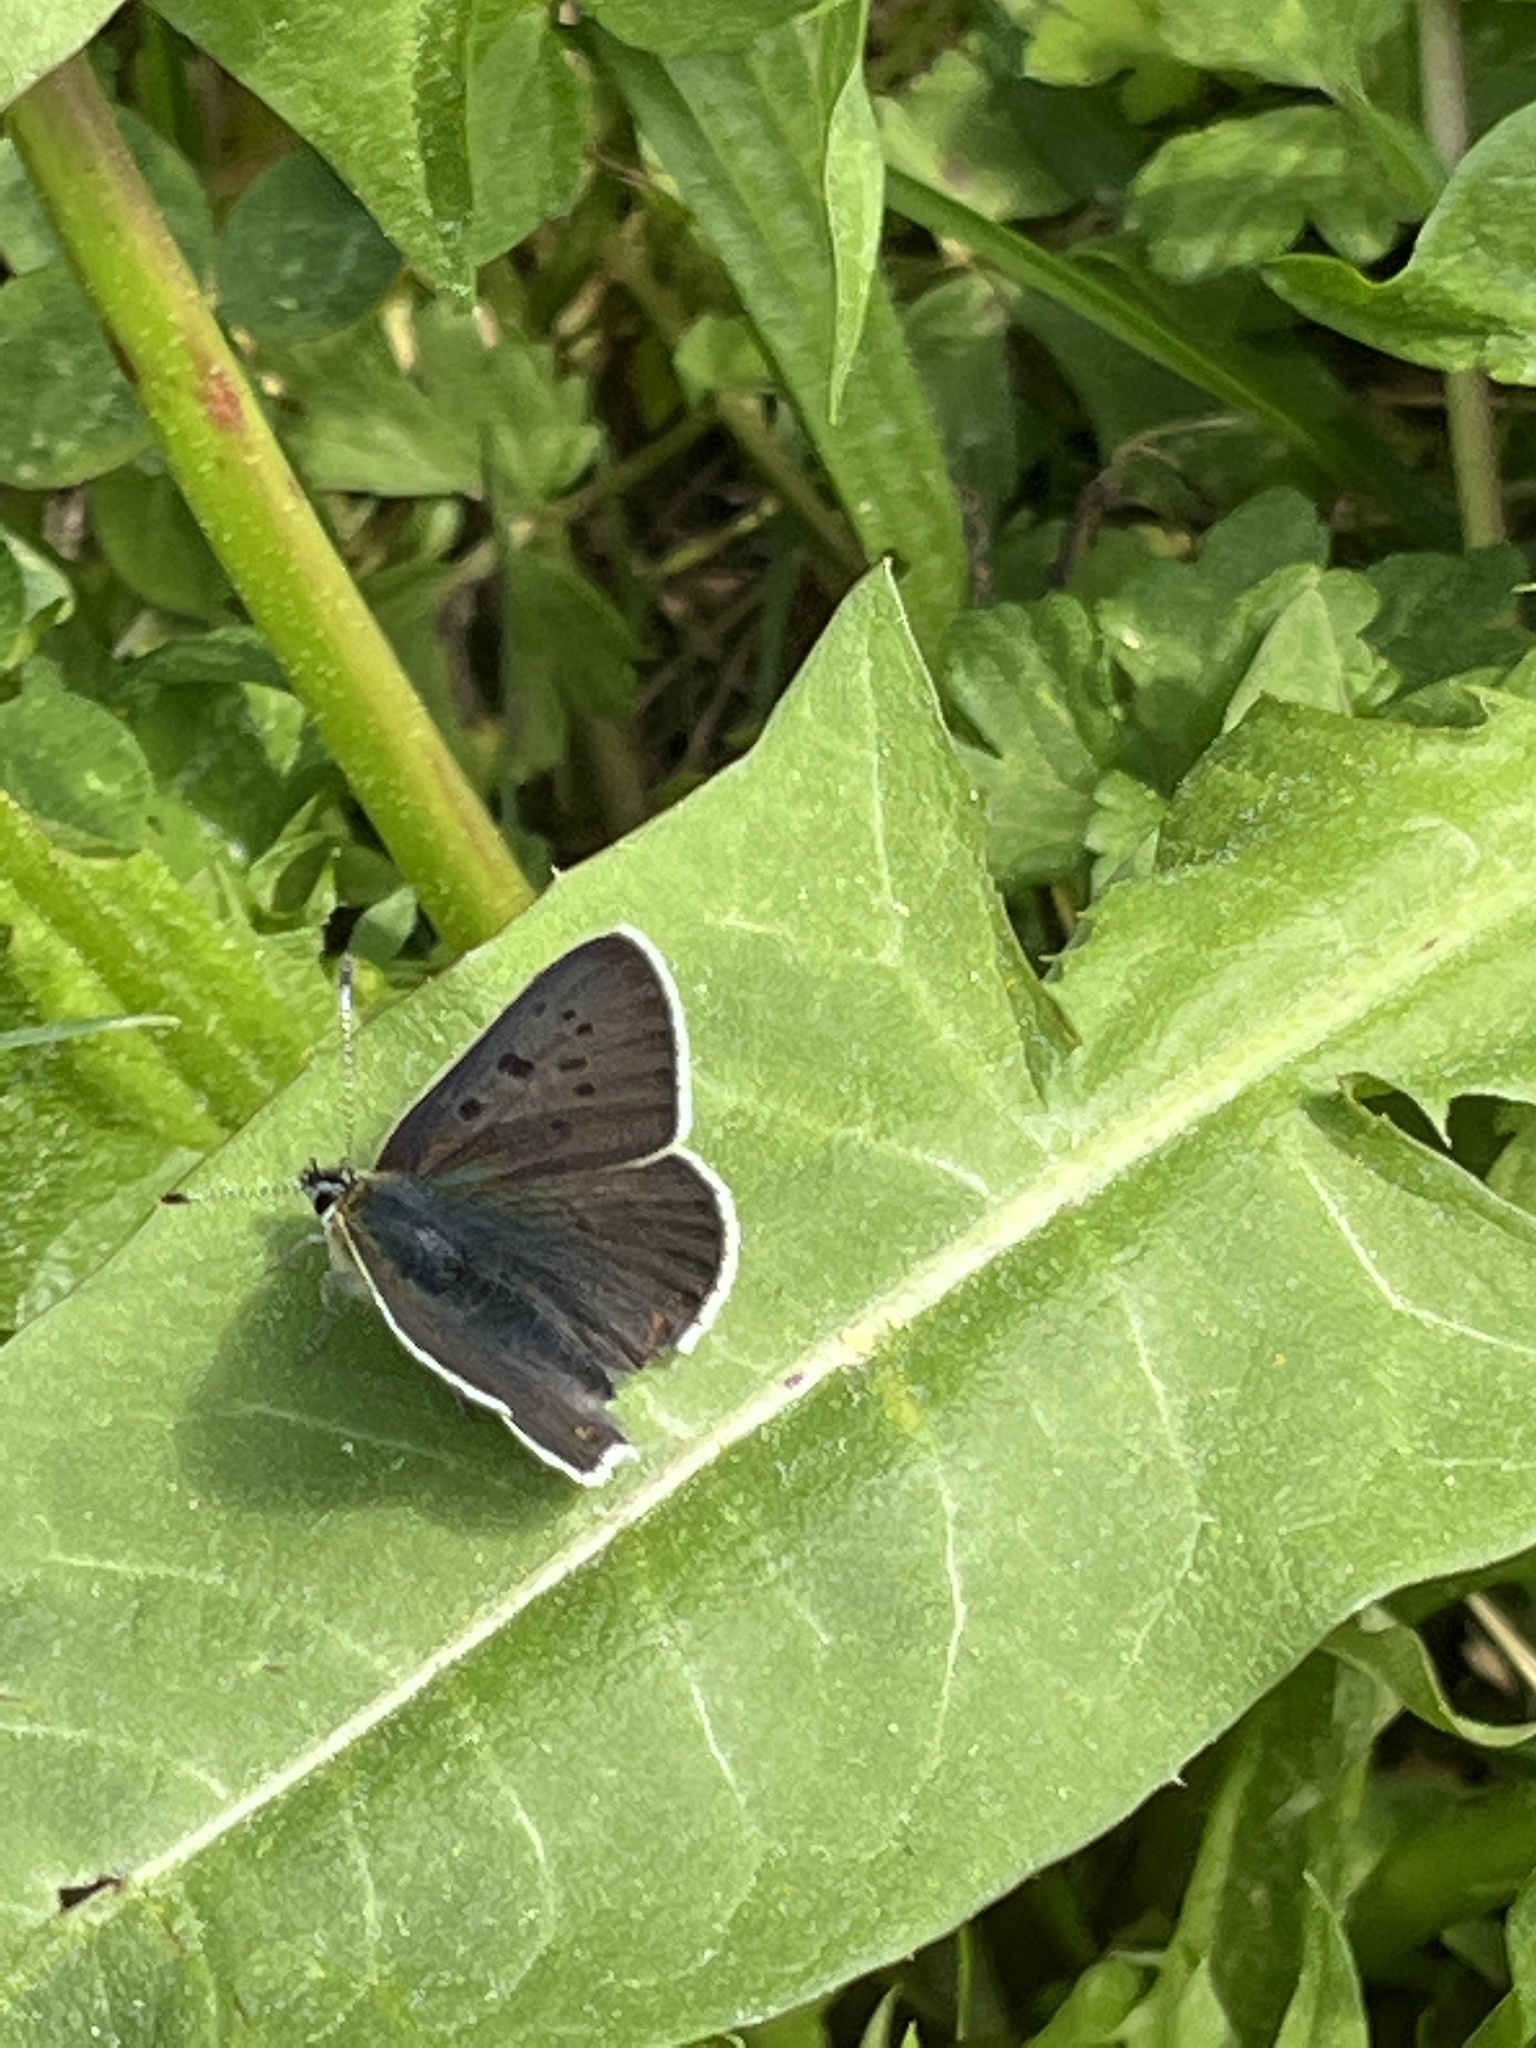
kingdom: Animalia
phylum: Arthropoda
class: Insecta
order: Lepidoptera
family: Lycaenidae
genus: Loweia
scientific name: Loweia tityrus
